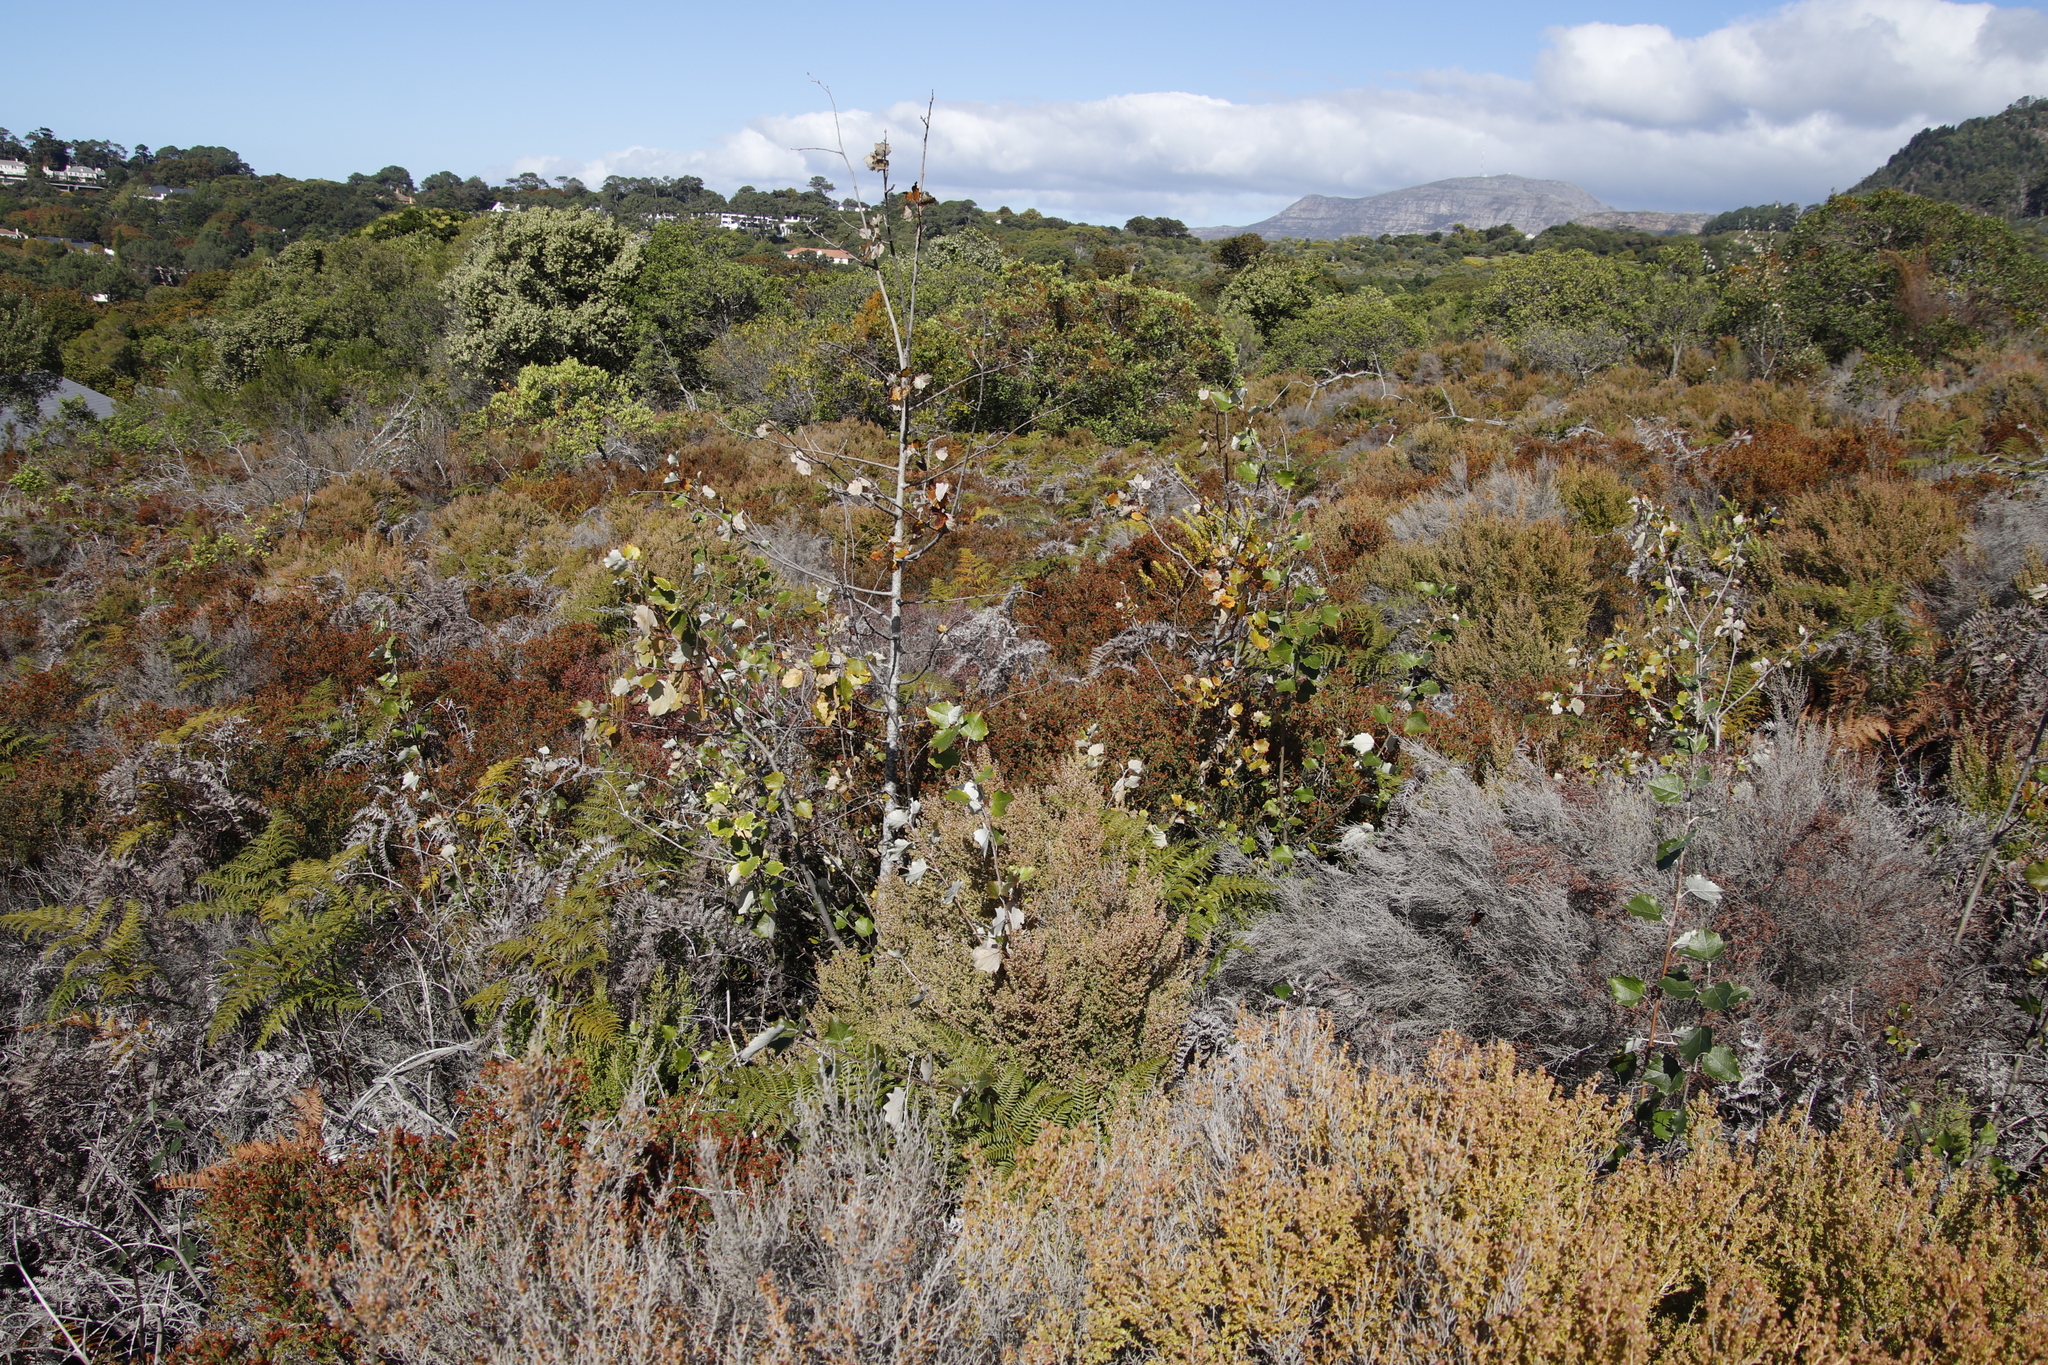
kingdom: Plantae
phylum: Tracheophyta
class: Magnoliopsida
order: Malpighiales
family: Salicaceae
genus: Populus
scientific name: Populus canescens
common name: Gray poplar
